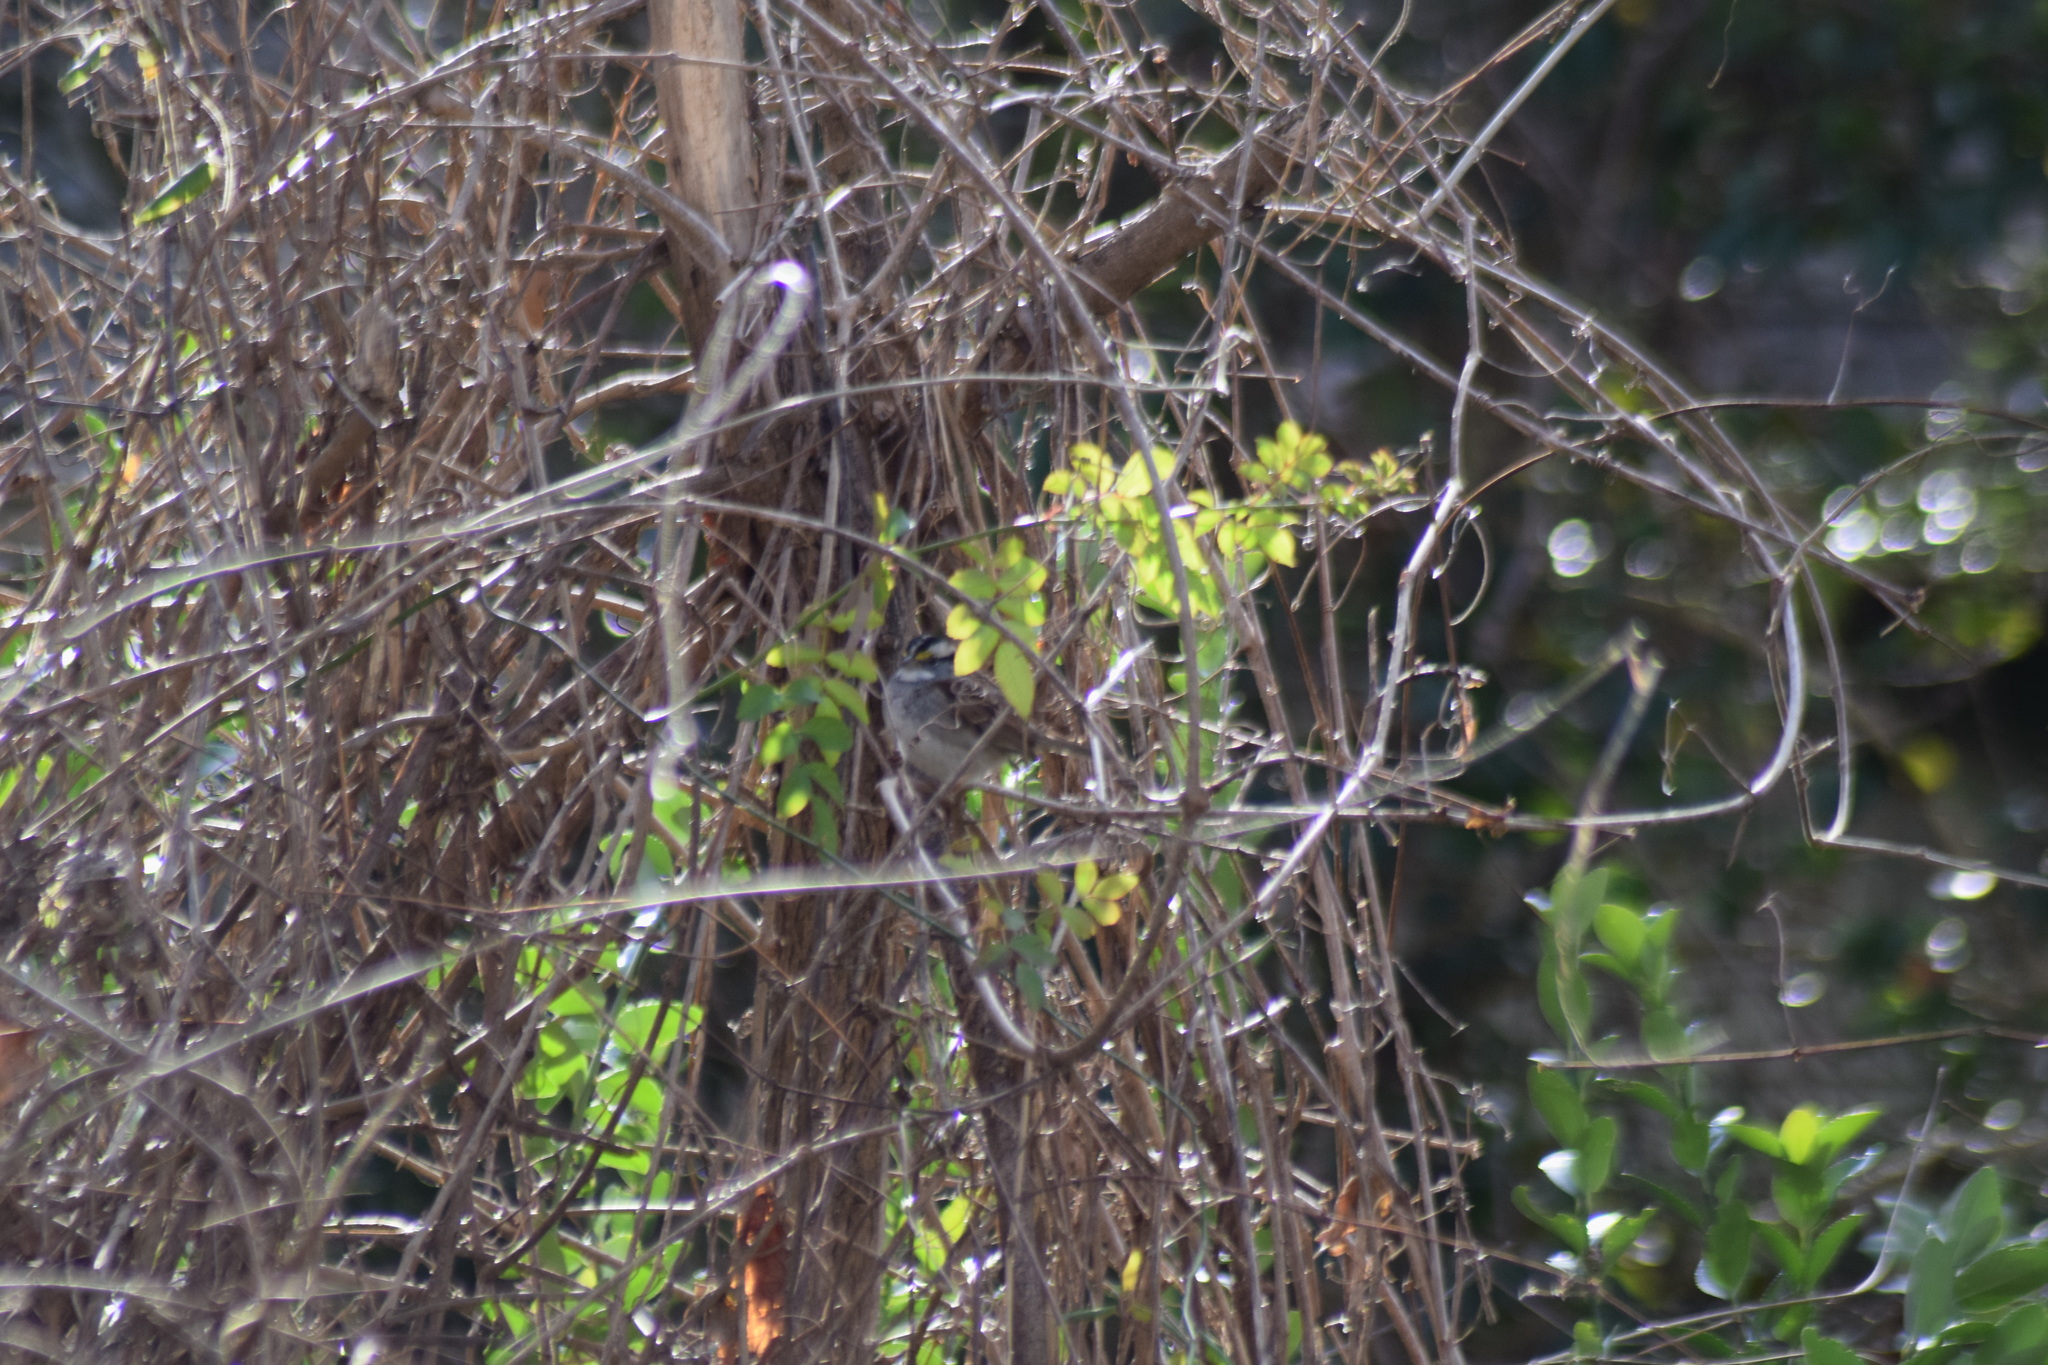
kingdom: Animalia
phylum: Chordata
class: Aves
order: Passeriformes
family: Passerellidae
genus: Zonotrichia
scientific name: Zonotrichia albicollis
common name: White-throated sparrow
